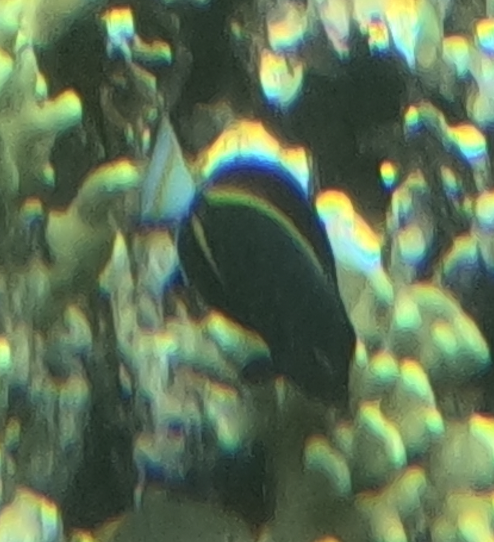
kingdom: Animalia
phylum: Chordata
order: Perciformes
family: Acanthuridae
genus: Acanthurus
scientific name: Acanthurus nigricans
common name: Whitecheek surgeonfish
